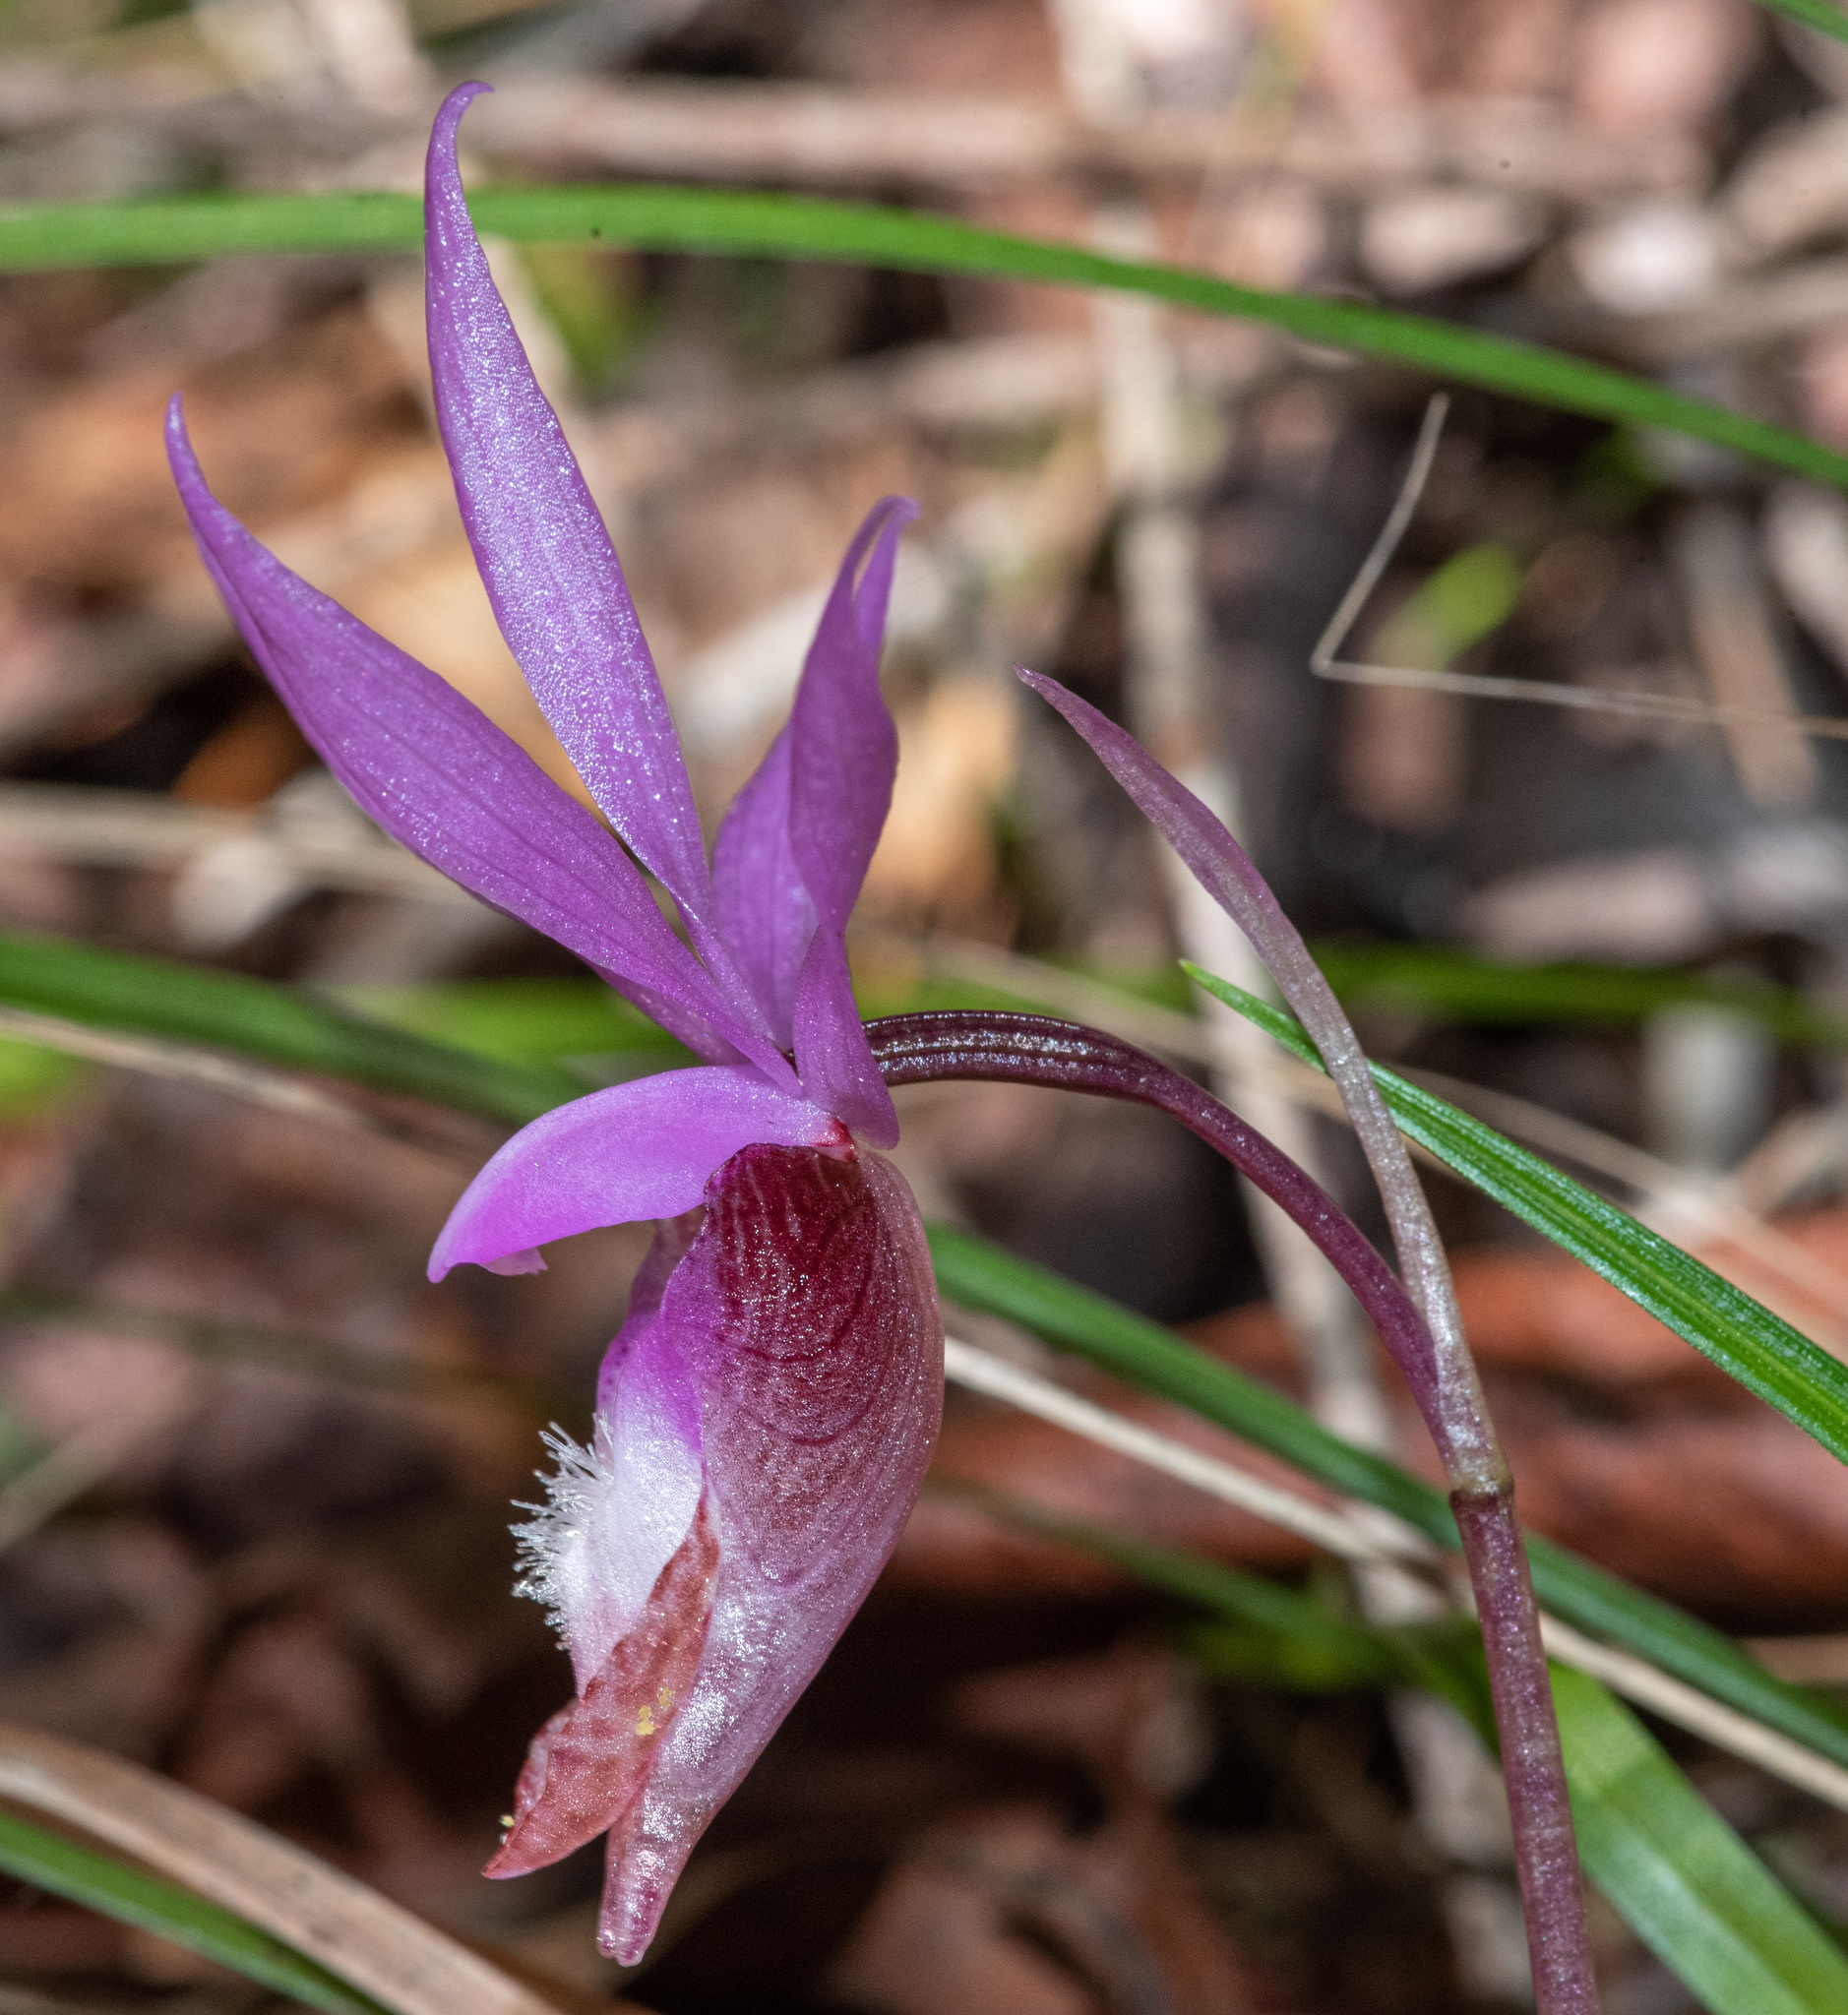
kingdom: Plantae
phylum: Tracheophyta
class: Liliopsida
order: Asparagales
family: Orchidaceae
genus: Calypso
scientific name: Calypso bulbosa
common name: Calypso
